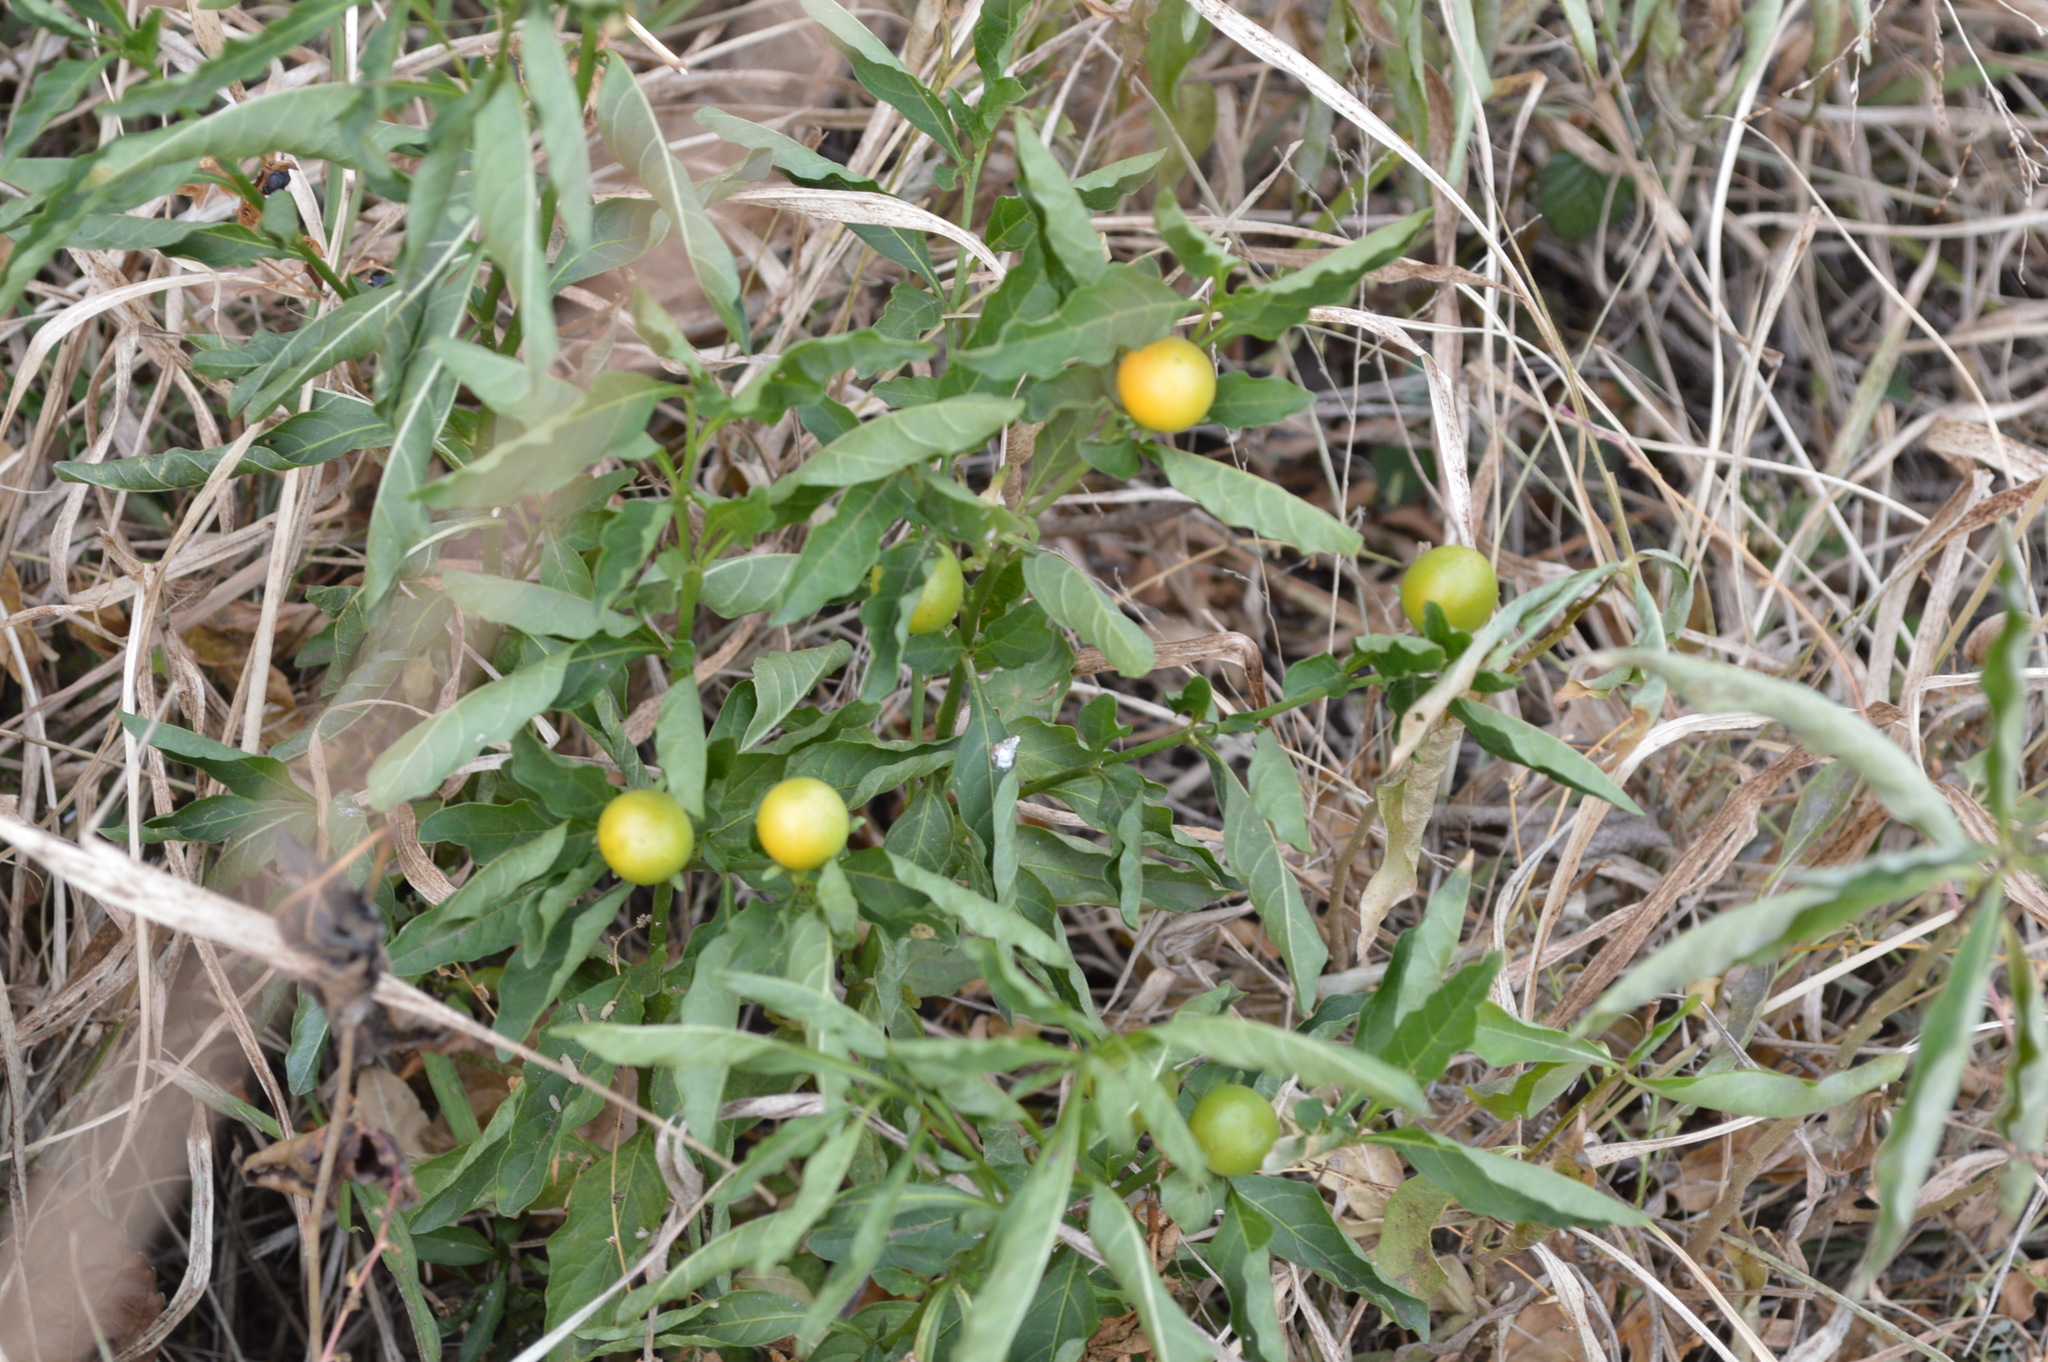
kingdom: Plantae
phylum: Tracheophyta
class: Magnoliopsida
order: Solanales
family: Solanaceae
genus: Solanum
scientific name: Solanum pseudocapsicum
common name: Jerusalem cherry
